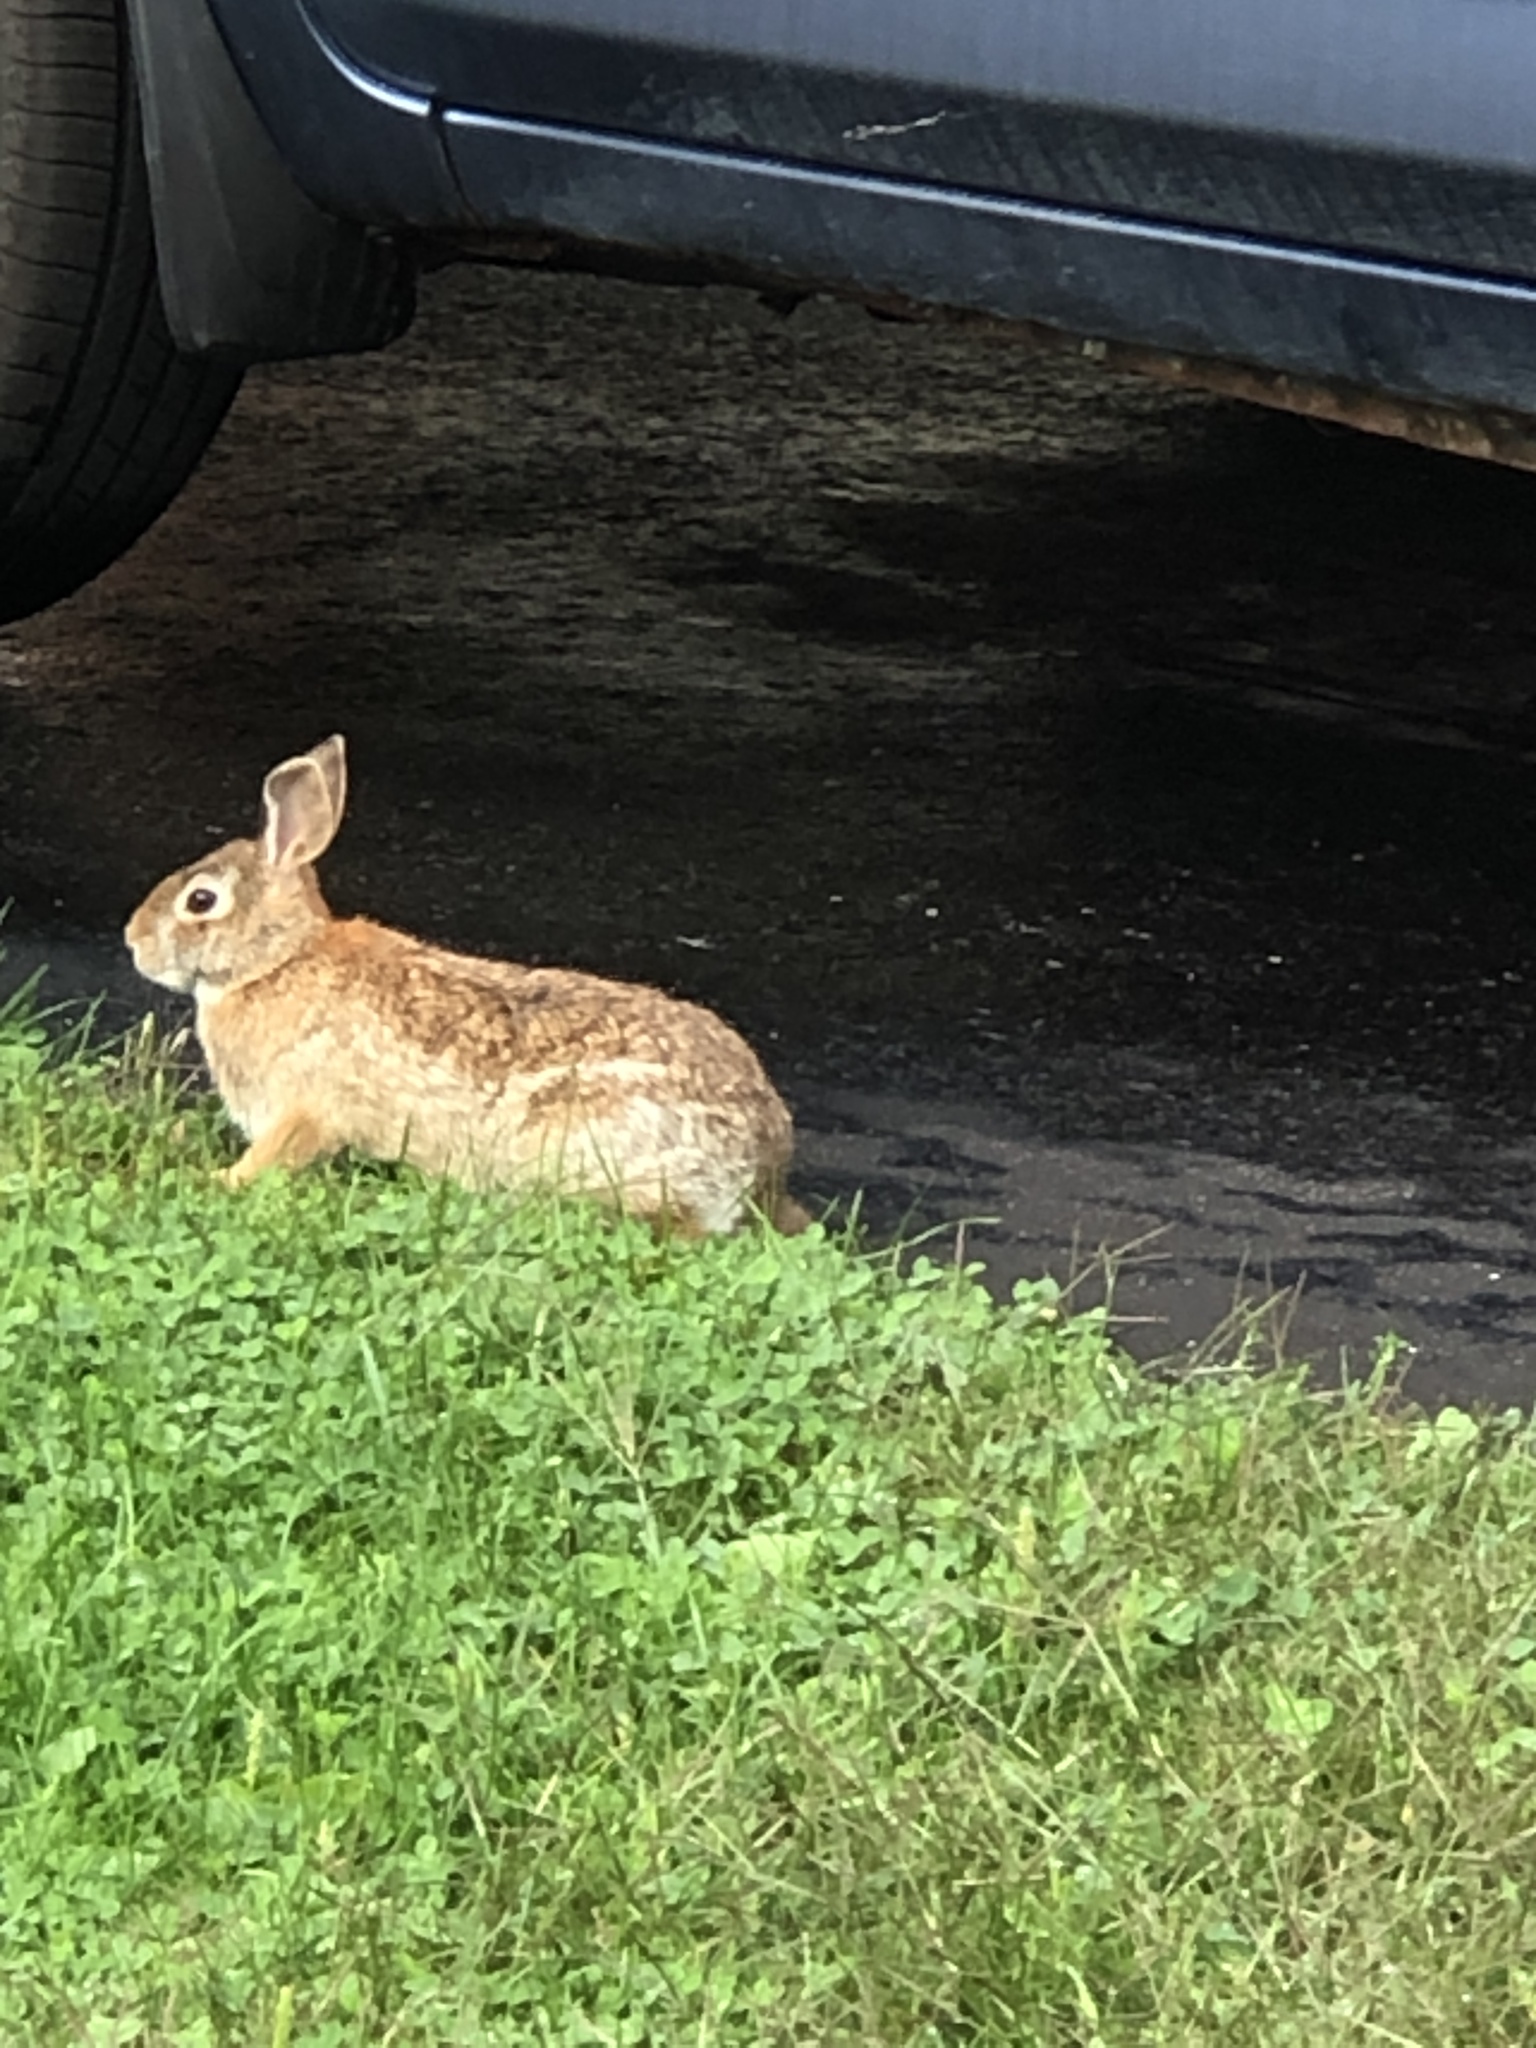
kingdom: Animalia
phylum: Chordata
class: Mammalia
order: Lagomorpha
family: Leporidae
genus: Sylvilagus
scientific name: Sylvilagus floridanus
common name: Eastern cottontail
